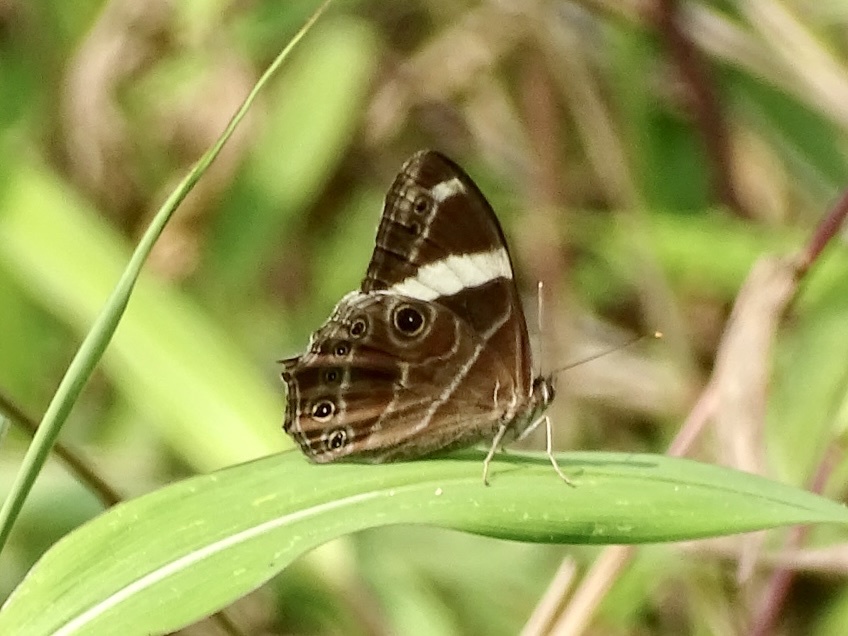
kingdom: Animalia
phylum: Arthropoda
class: Insecta
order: Lepidoptera
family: Nymphalidae
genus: Lethe
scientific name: Lethe confusa
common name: Banded treebrown
